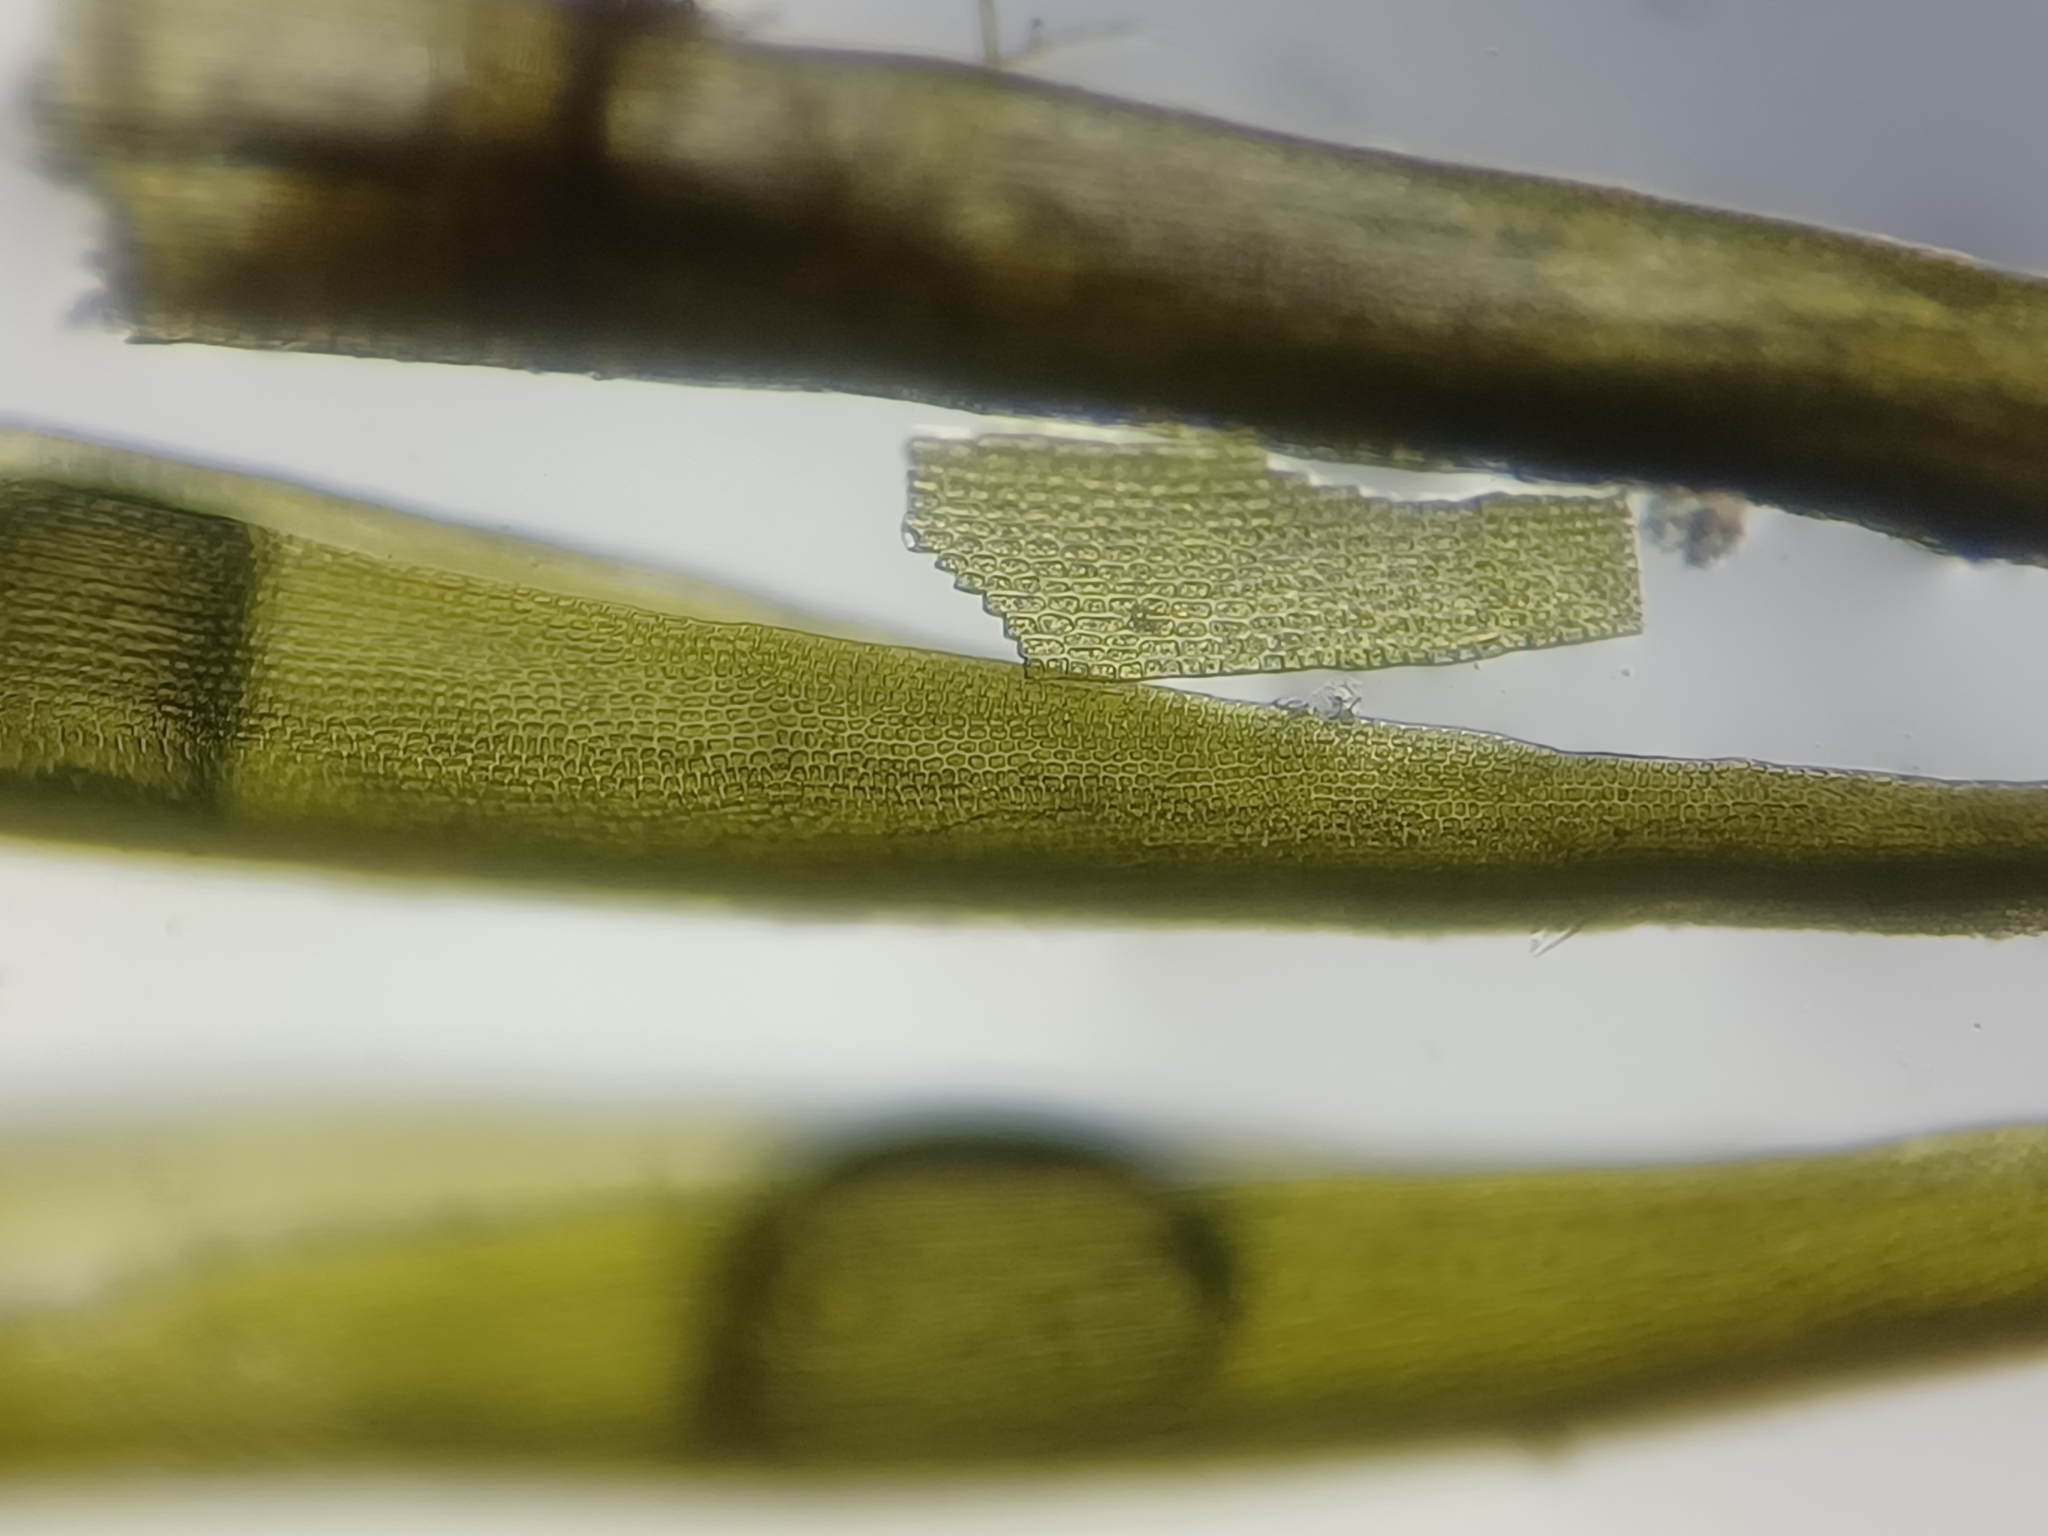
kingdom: Plantae
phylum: Bryophyta
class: Bryopsida
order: Dicranales
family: Dicranaceae
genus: Dicranum
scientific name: Dicranum viride
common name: Green broom moss
